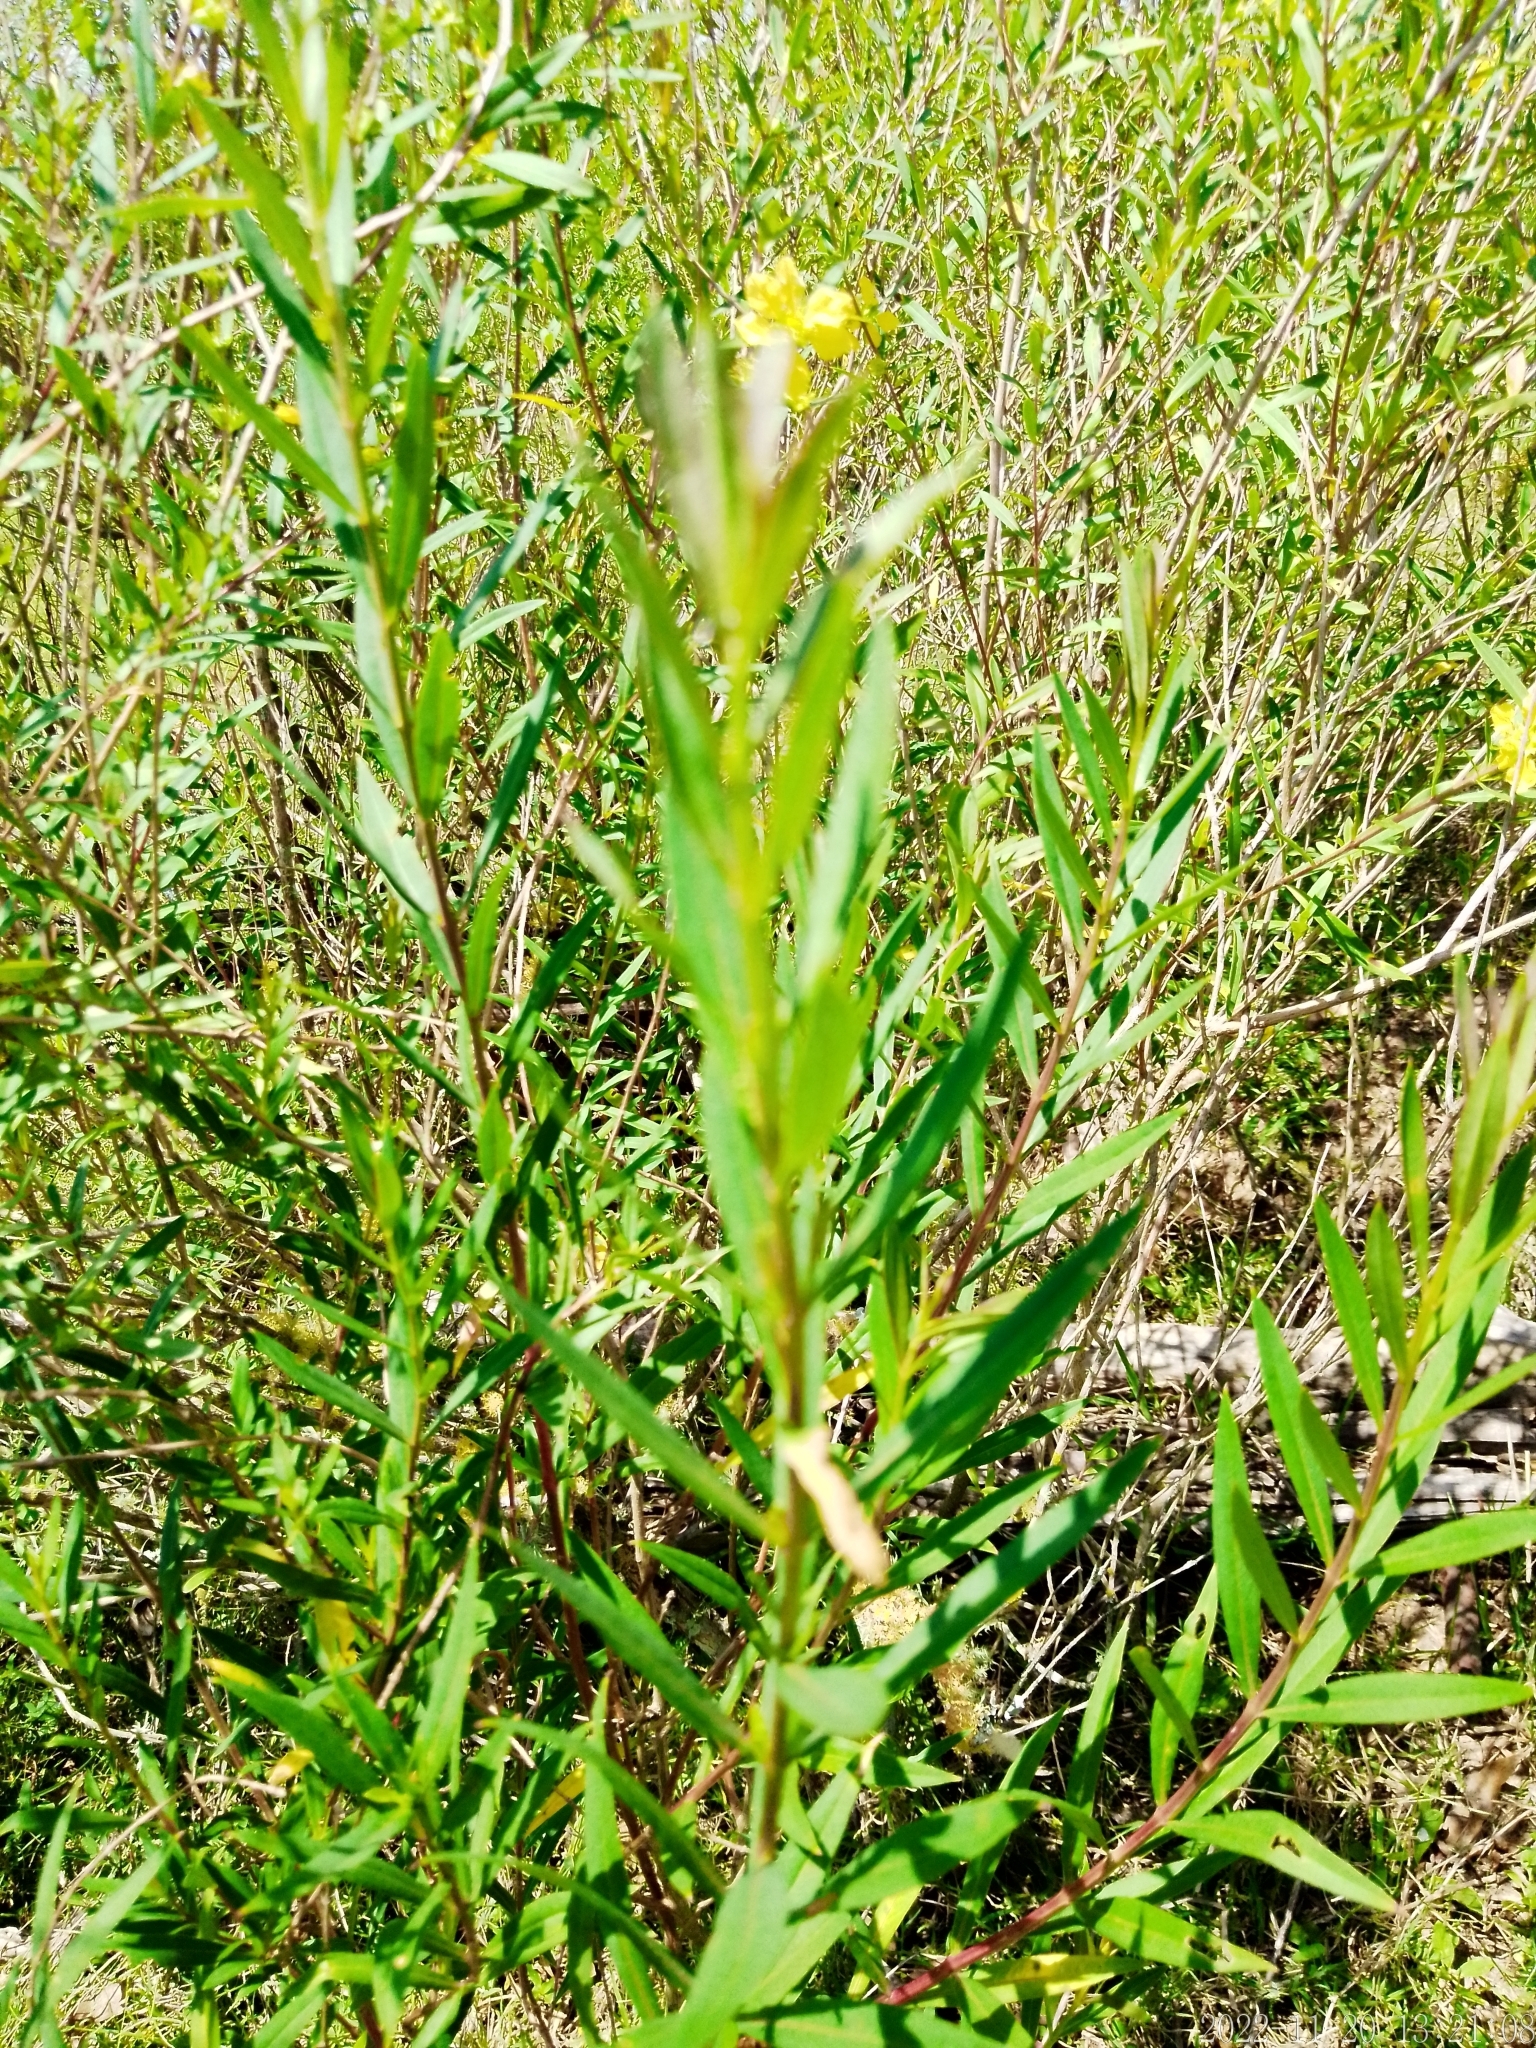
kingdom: Plantae
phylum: Tracheophyta
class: Magnoliopsida
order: Myrtales
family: Lythraceae
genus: Heimia
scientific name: Heimia salicifolia
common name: Willow-leaf heimia
